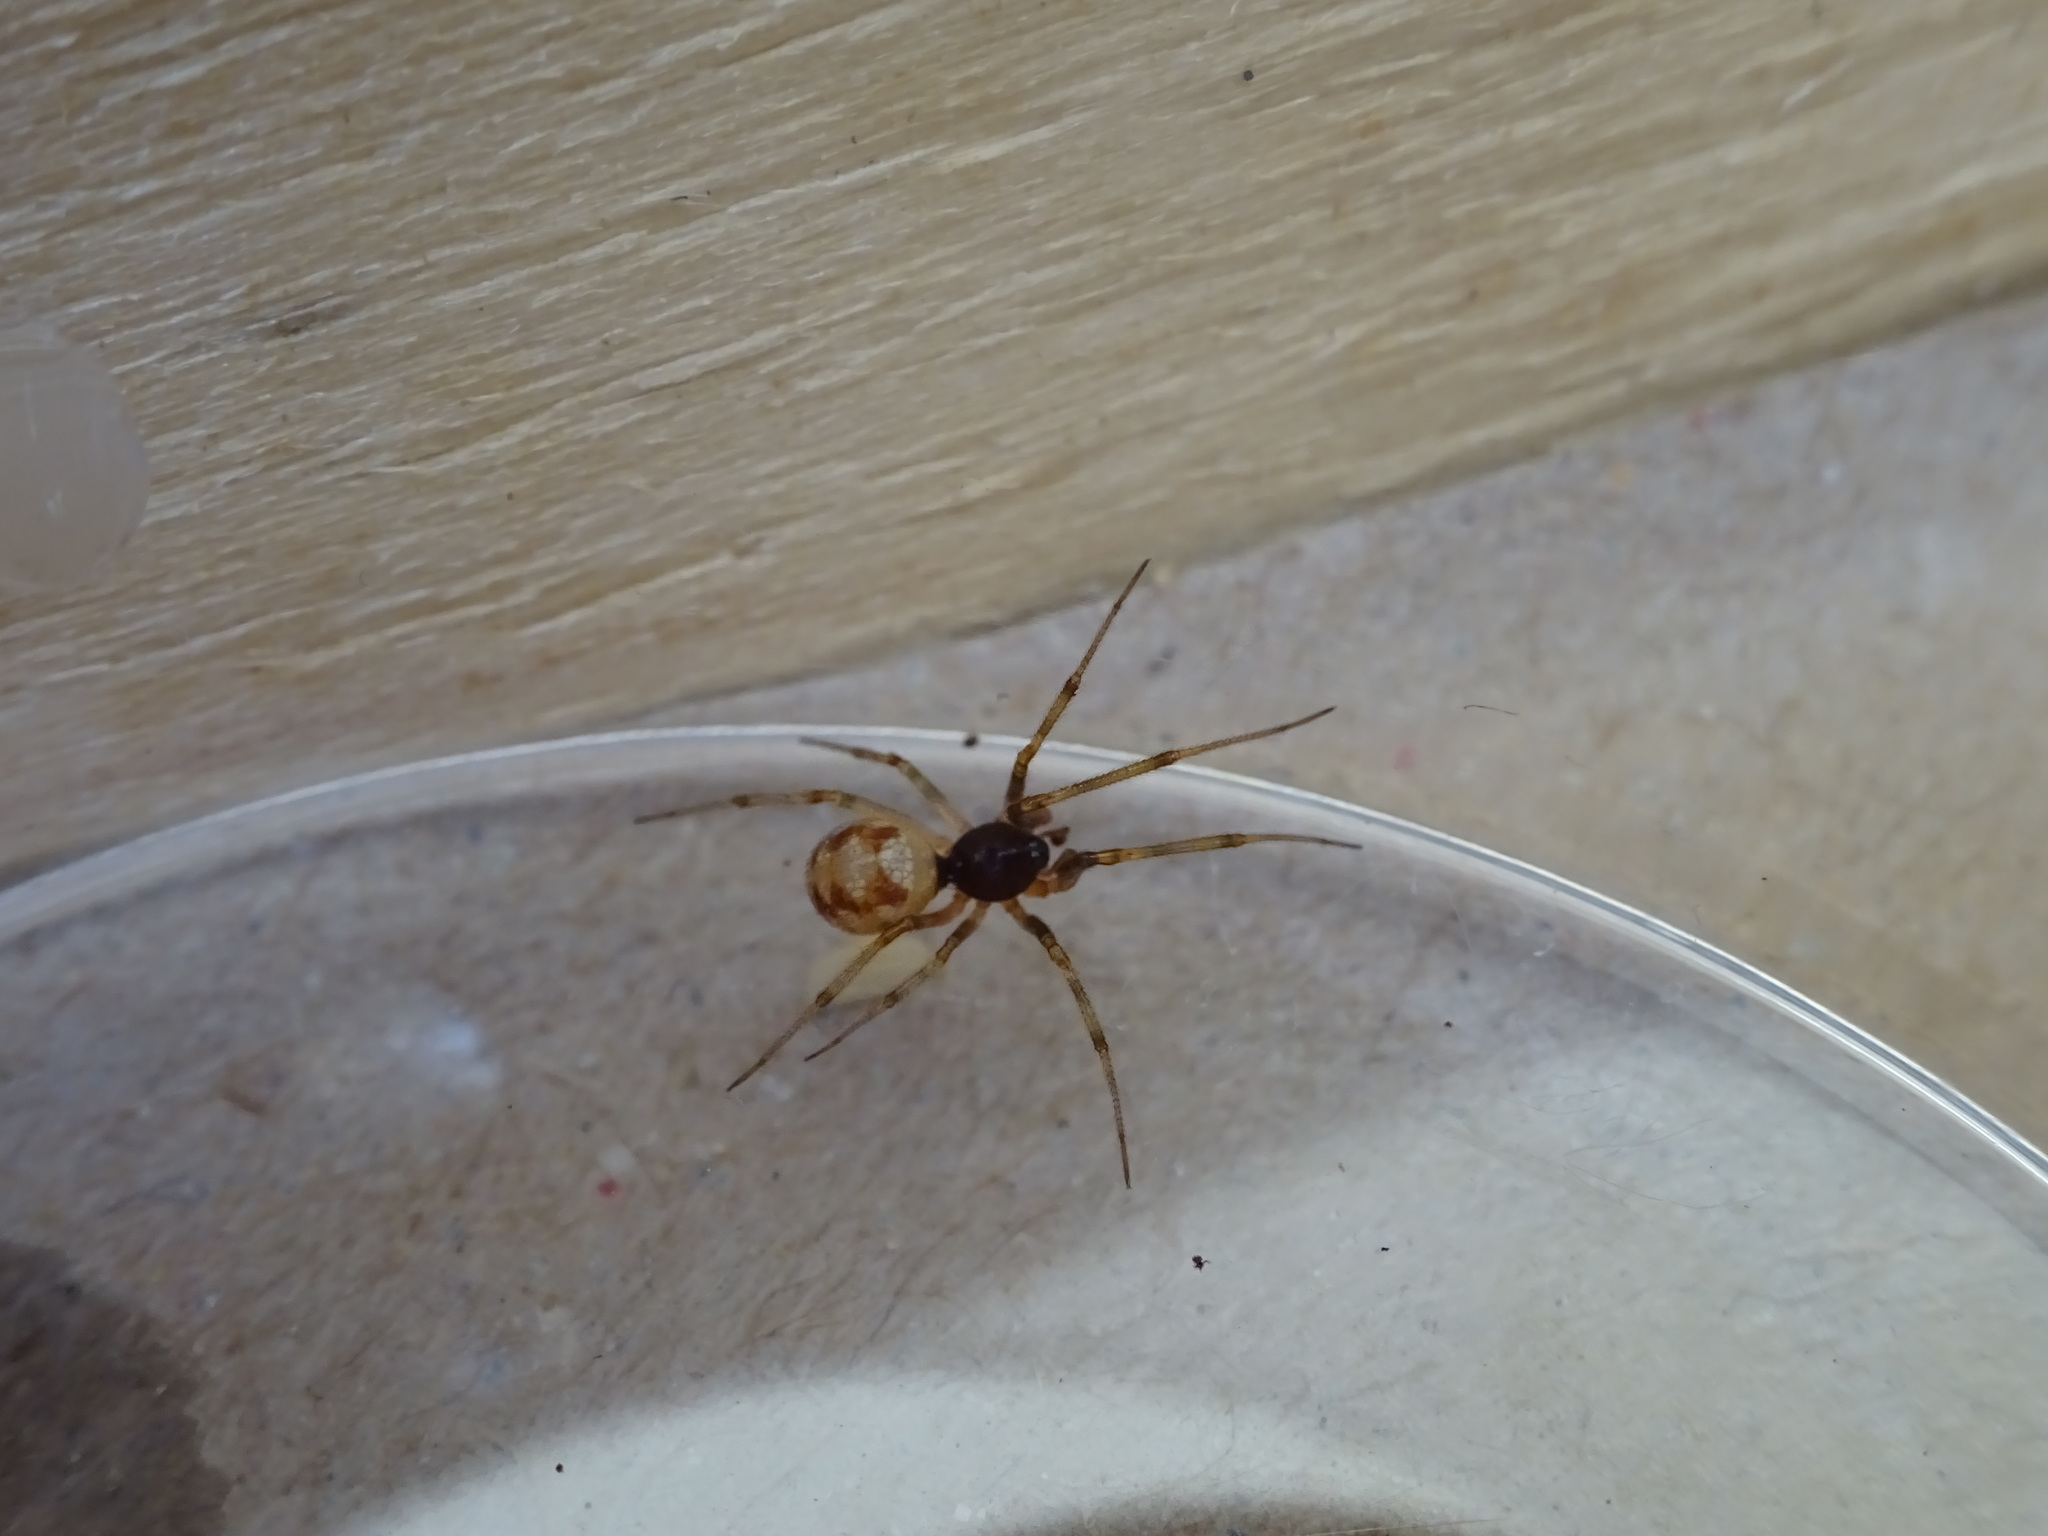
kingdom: Animalia
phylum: Arthropoda
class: Arachnida
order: Araneae
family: Theridiidae
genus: Steatoda
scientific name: Steatoda triangulosa
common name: Triangulate bud spider
